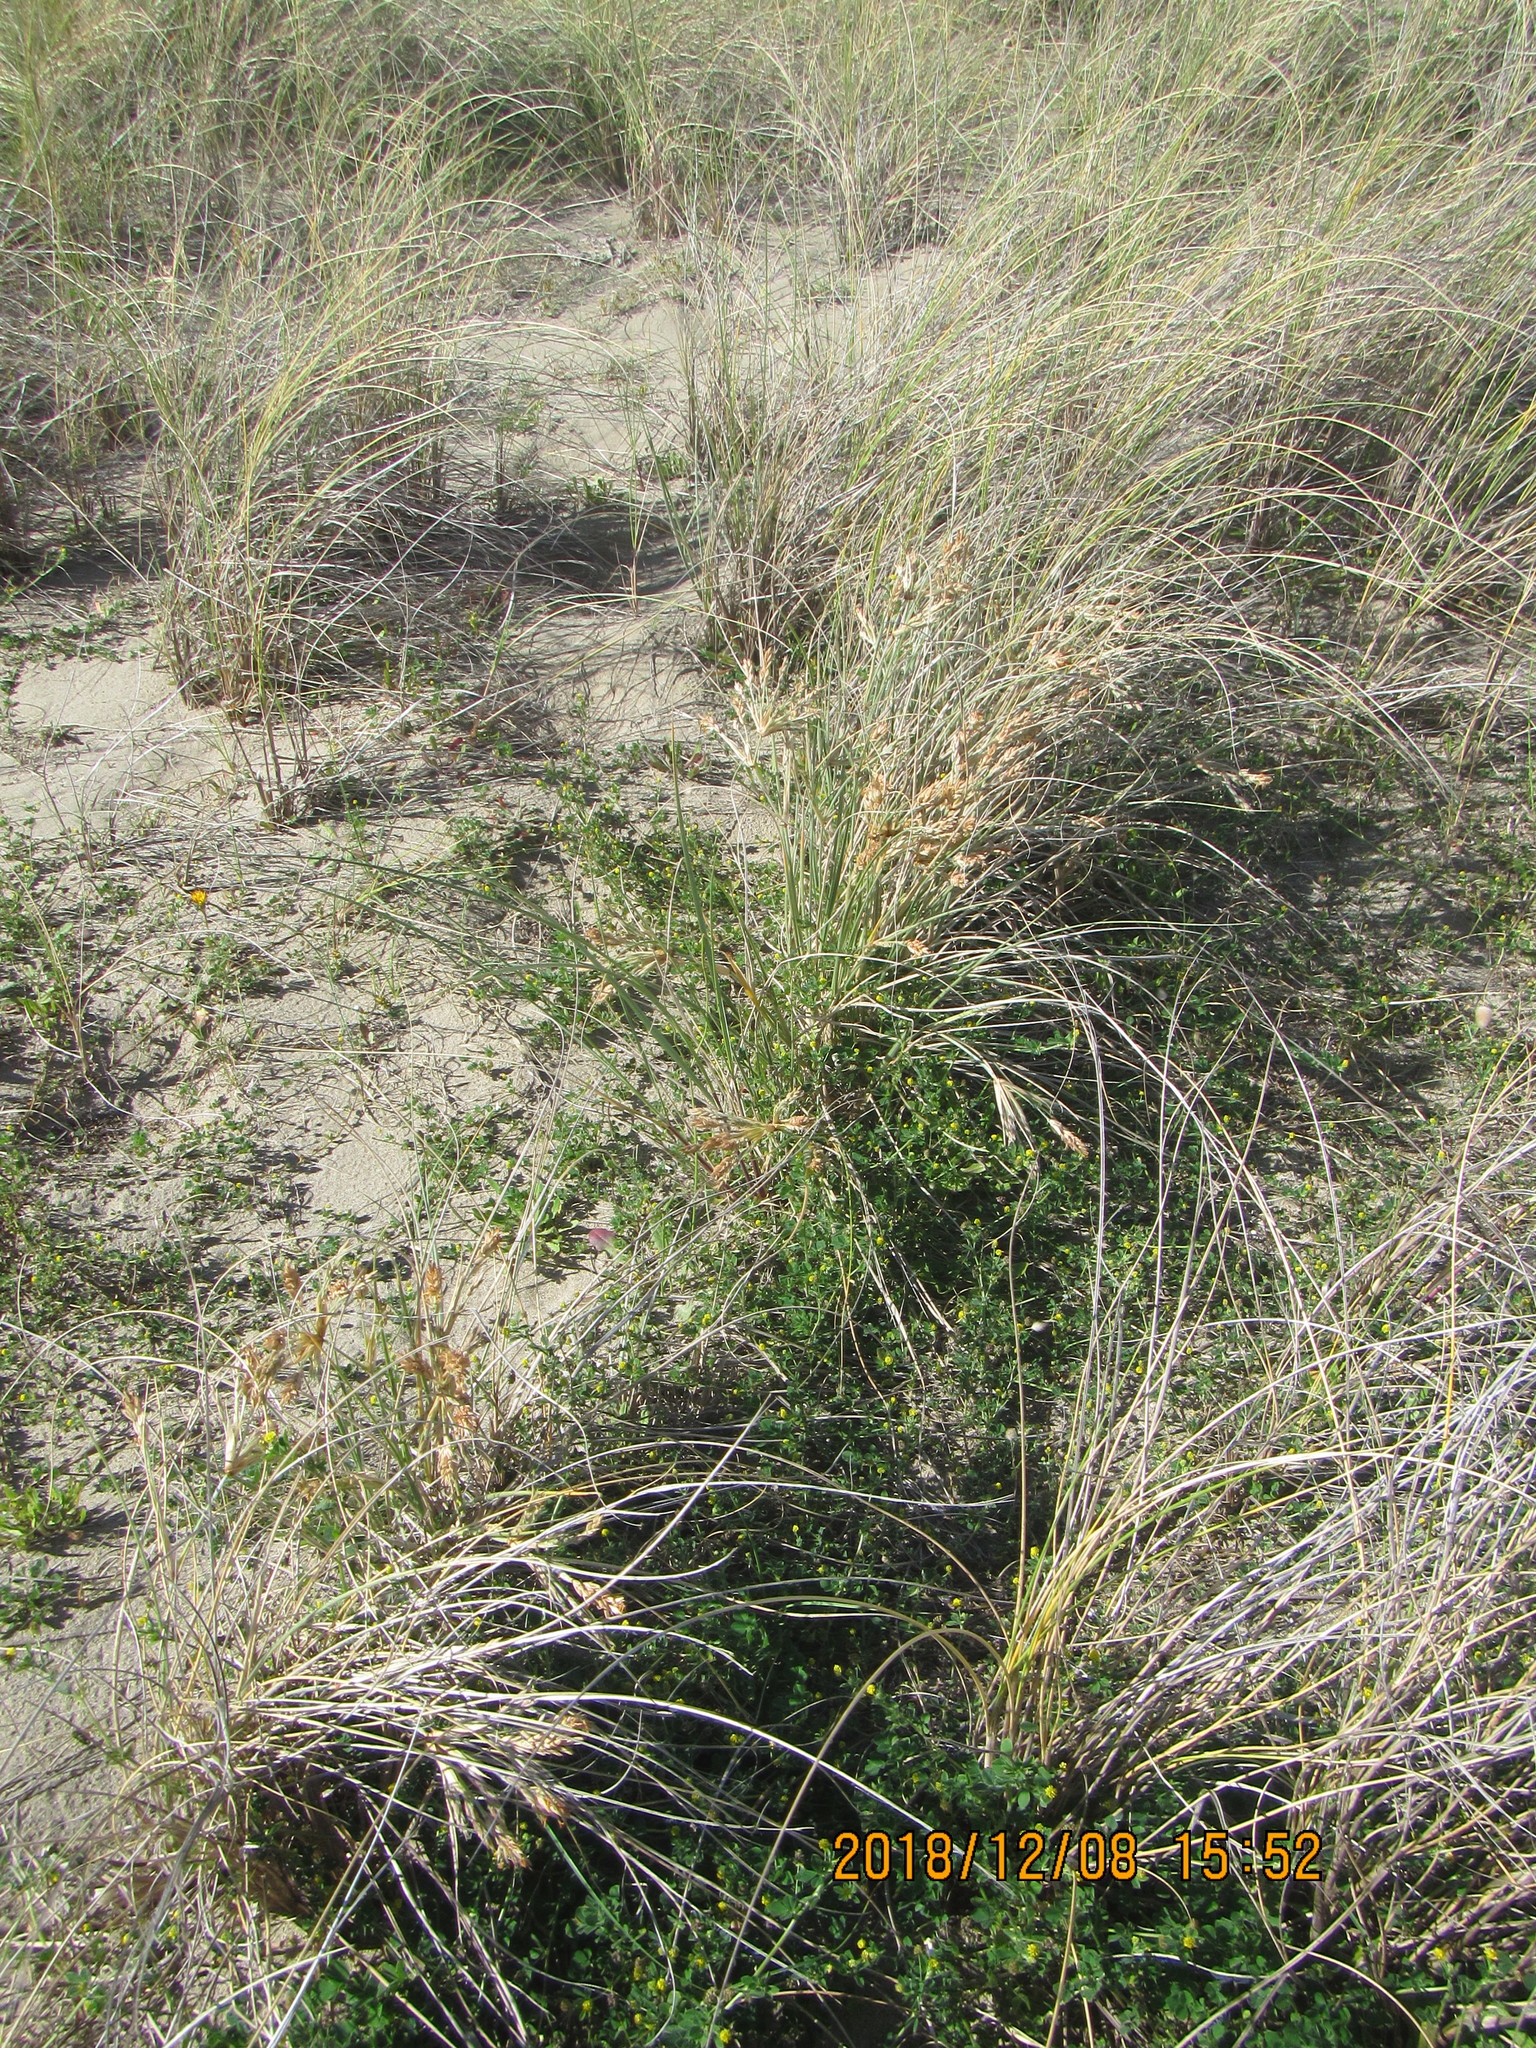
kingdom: Plantae
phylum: Tracheophyta
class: Magnoliopsida
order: Fabales
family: Fabaceae
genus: Melilotus
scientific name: Melilotus indicus
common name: Small melilot
